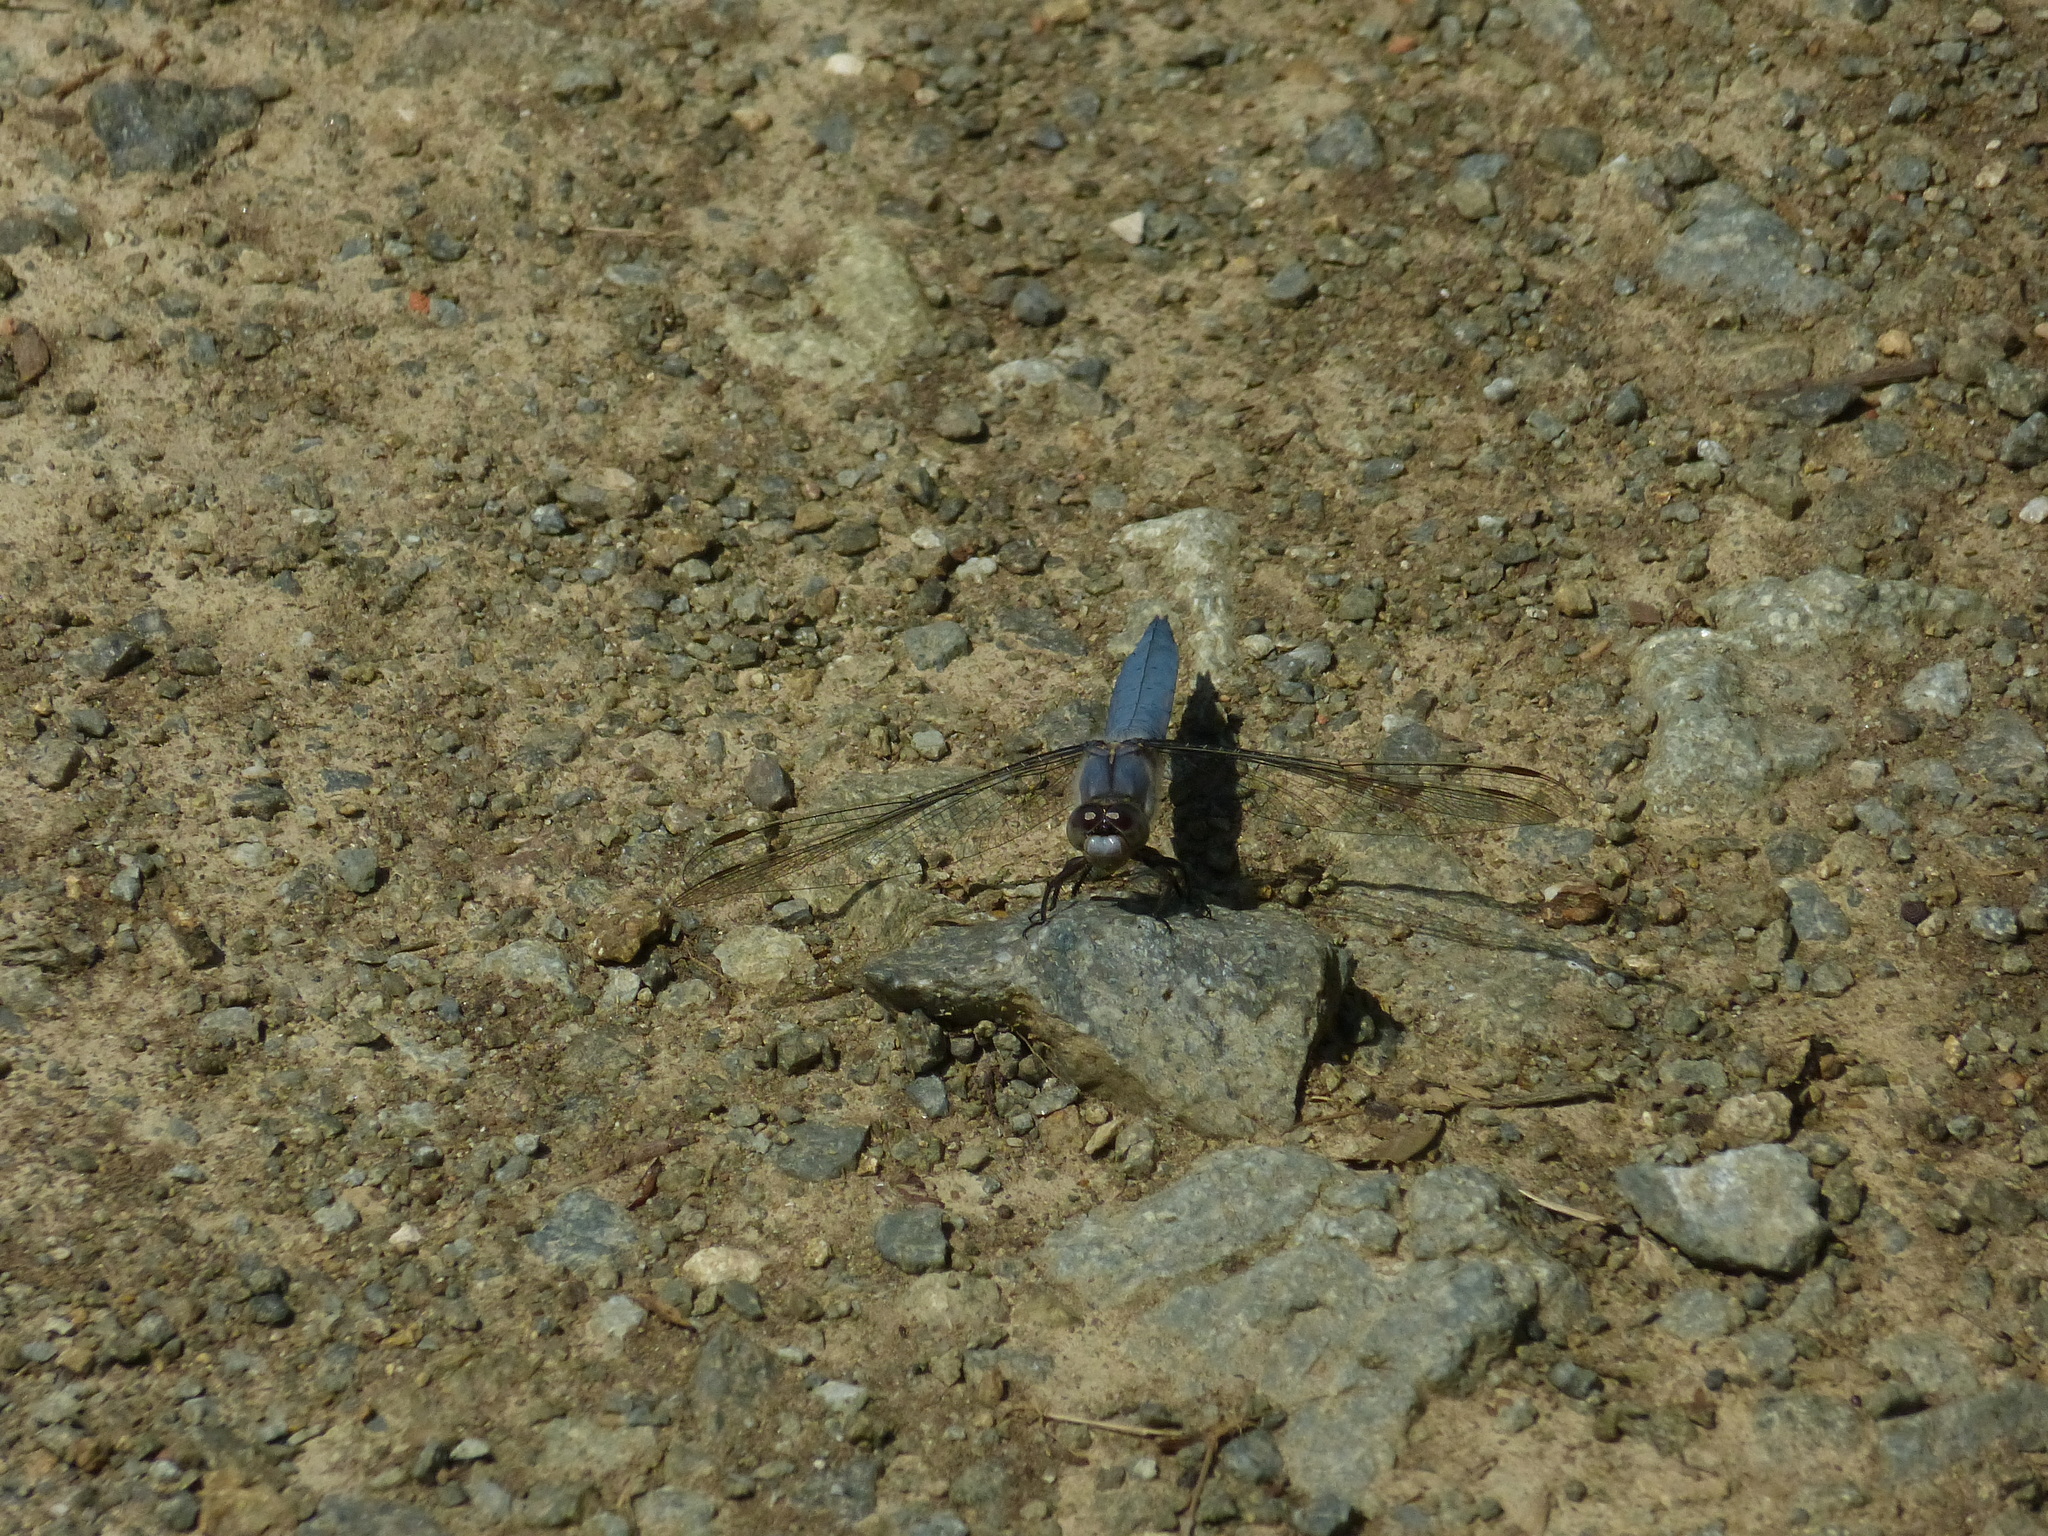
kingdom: Animalia
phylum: Arthropoda
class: Insecta
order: Odonata
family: Libellulidae
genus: Orthetrum
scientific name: Orthetrum brunneum
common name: Southern skimmer
